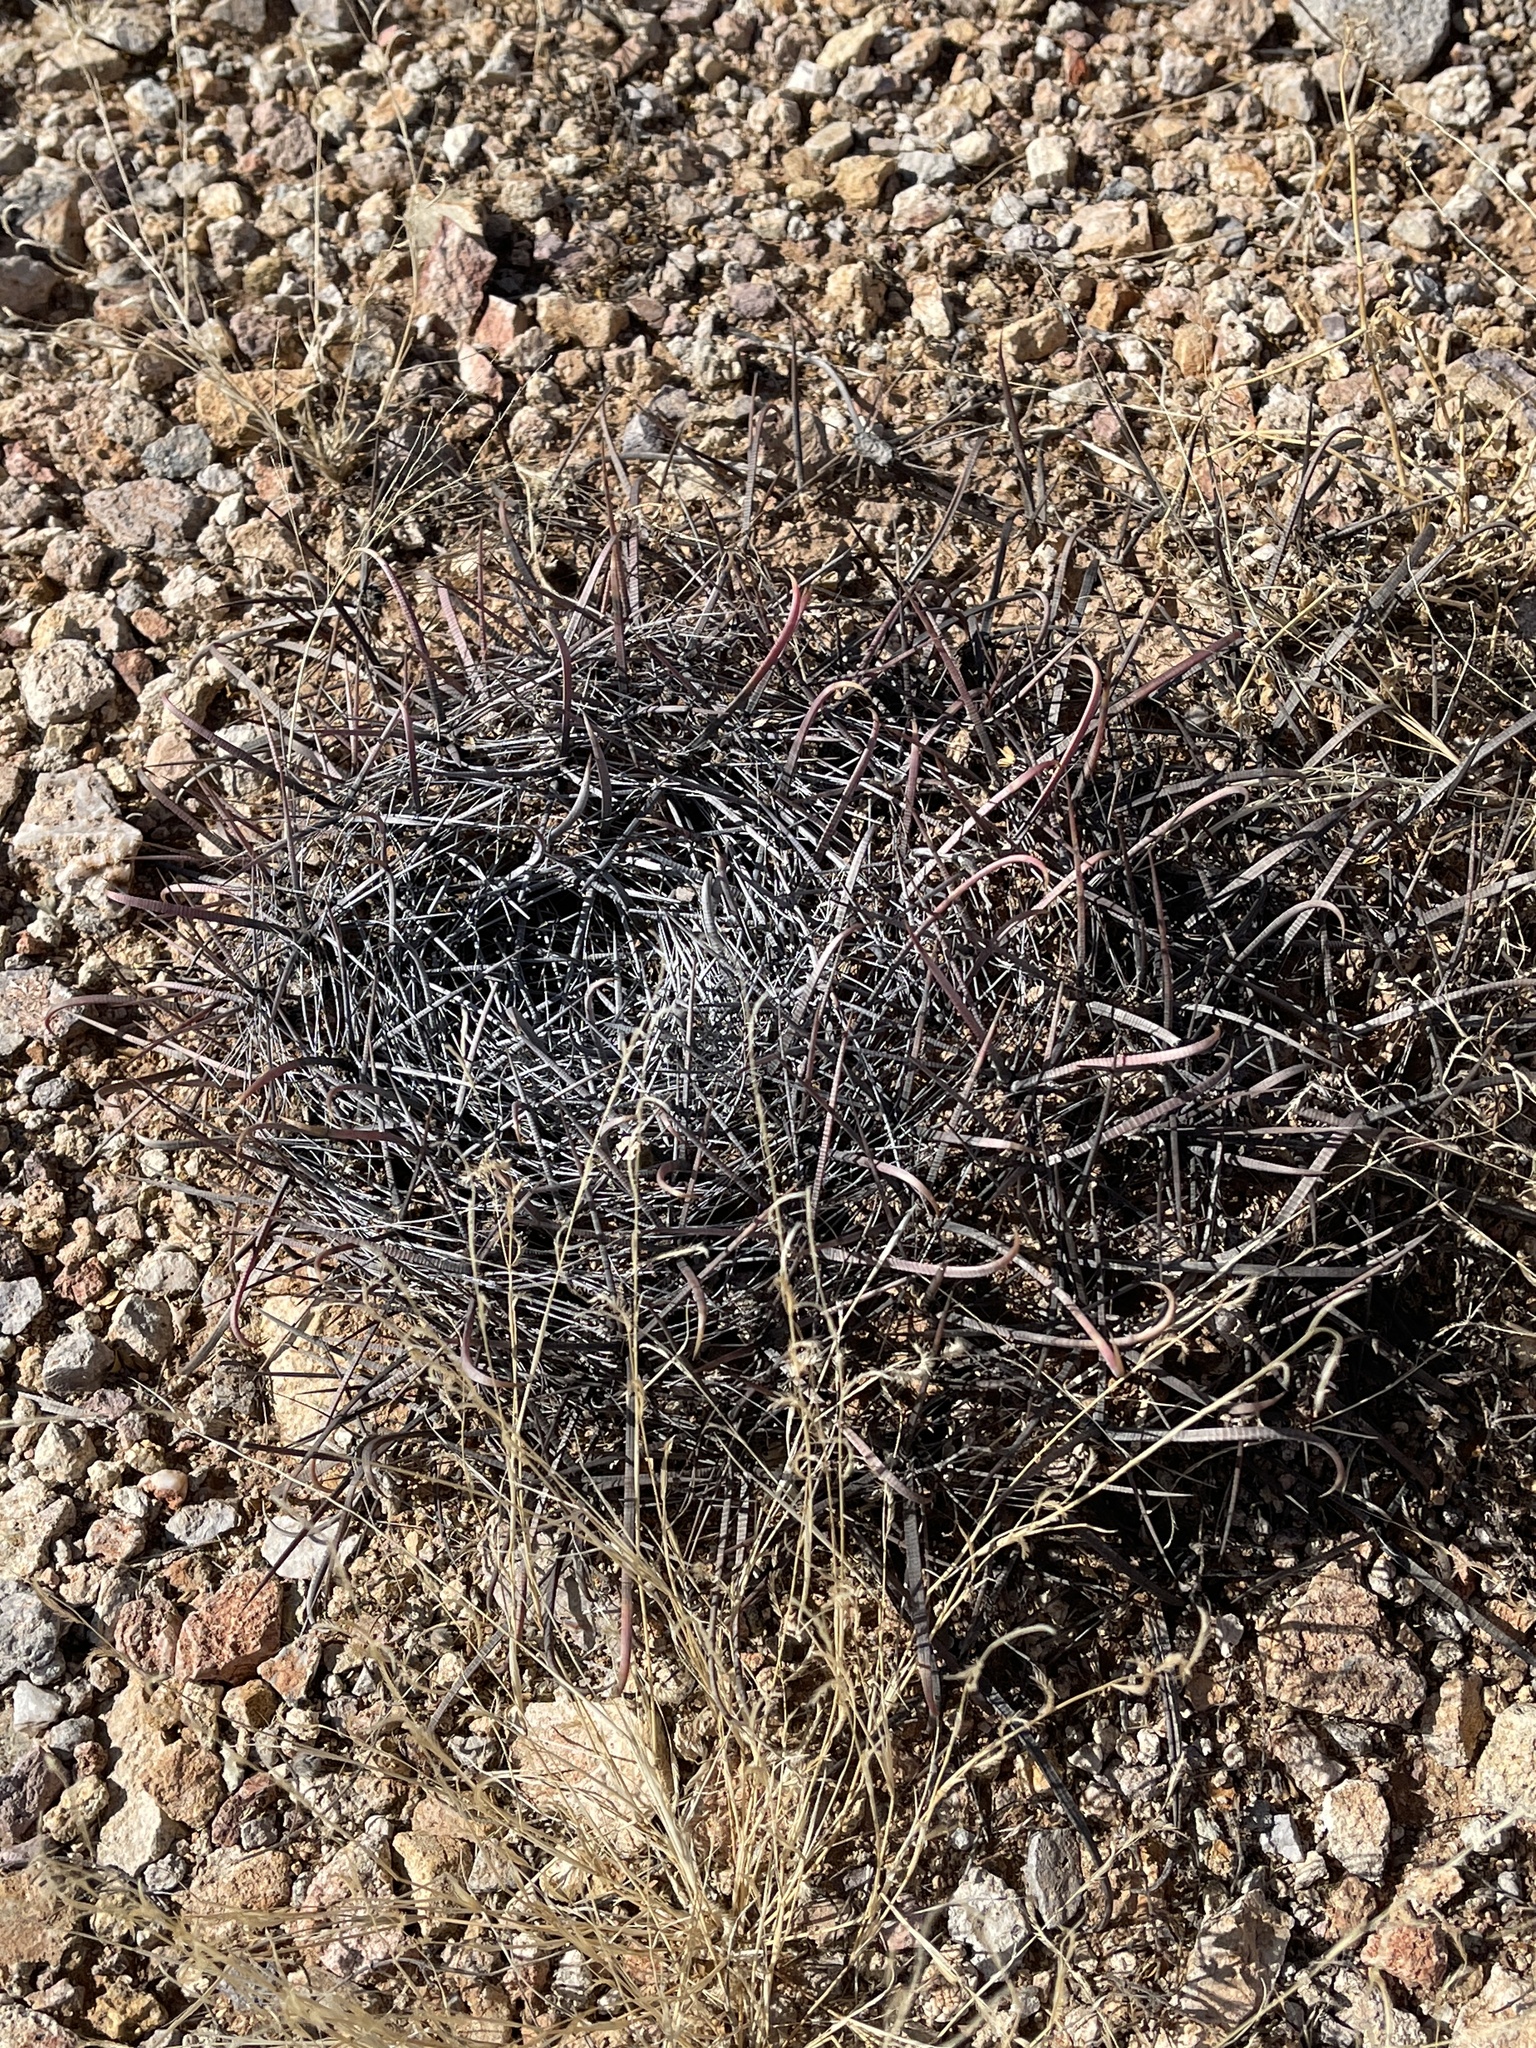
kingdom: Plantae
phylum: Tracheophyta
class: Magnoliopsida
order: Caryophyllales
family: Cactaceae
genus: Ferocactus
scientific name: Ferocactus wislizeni
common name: Candy barrel cactus
